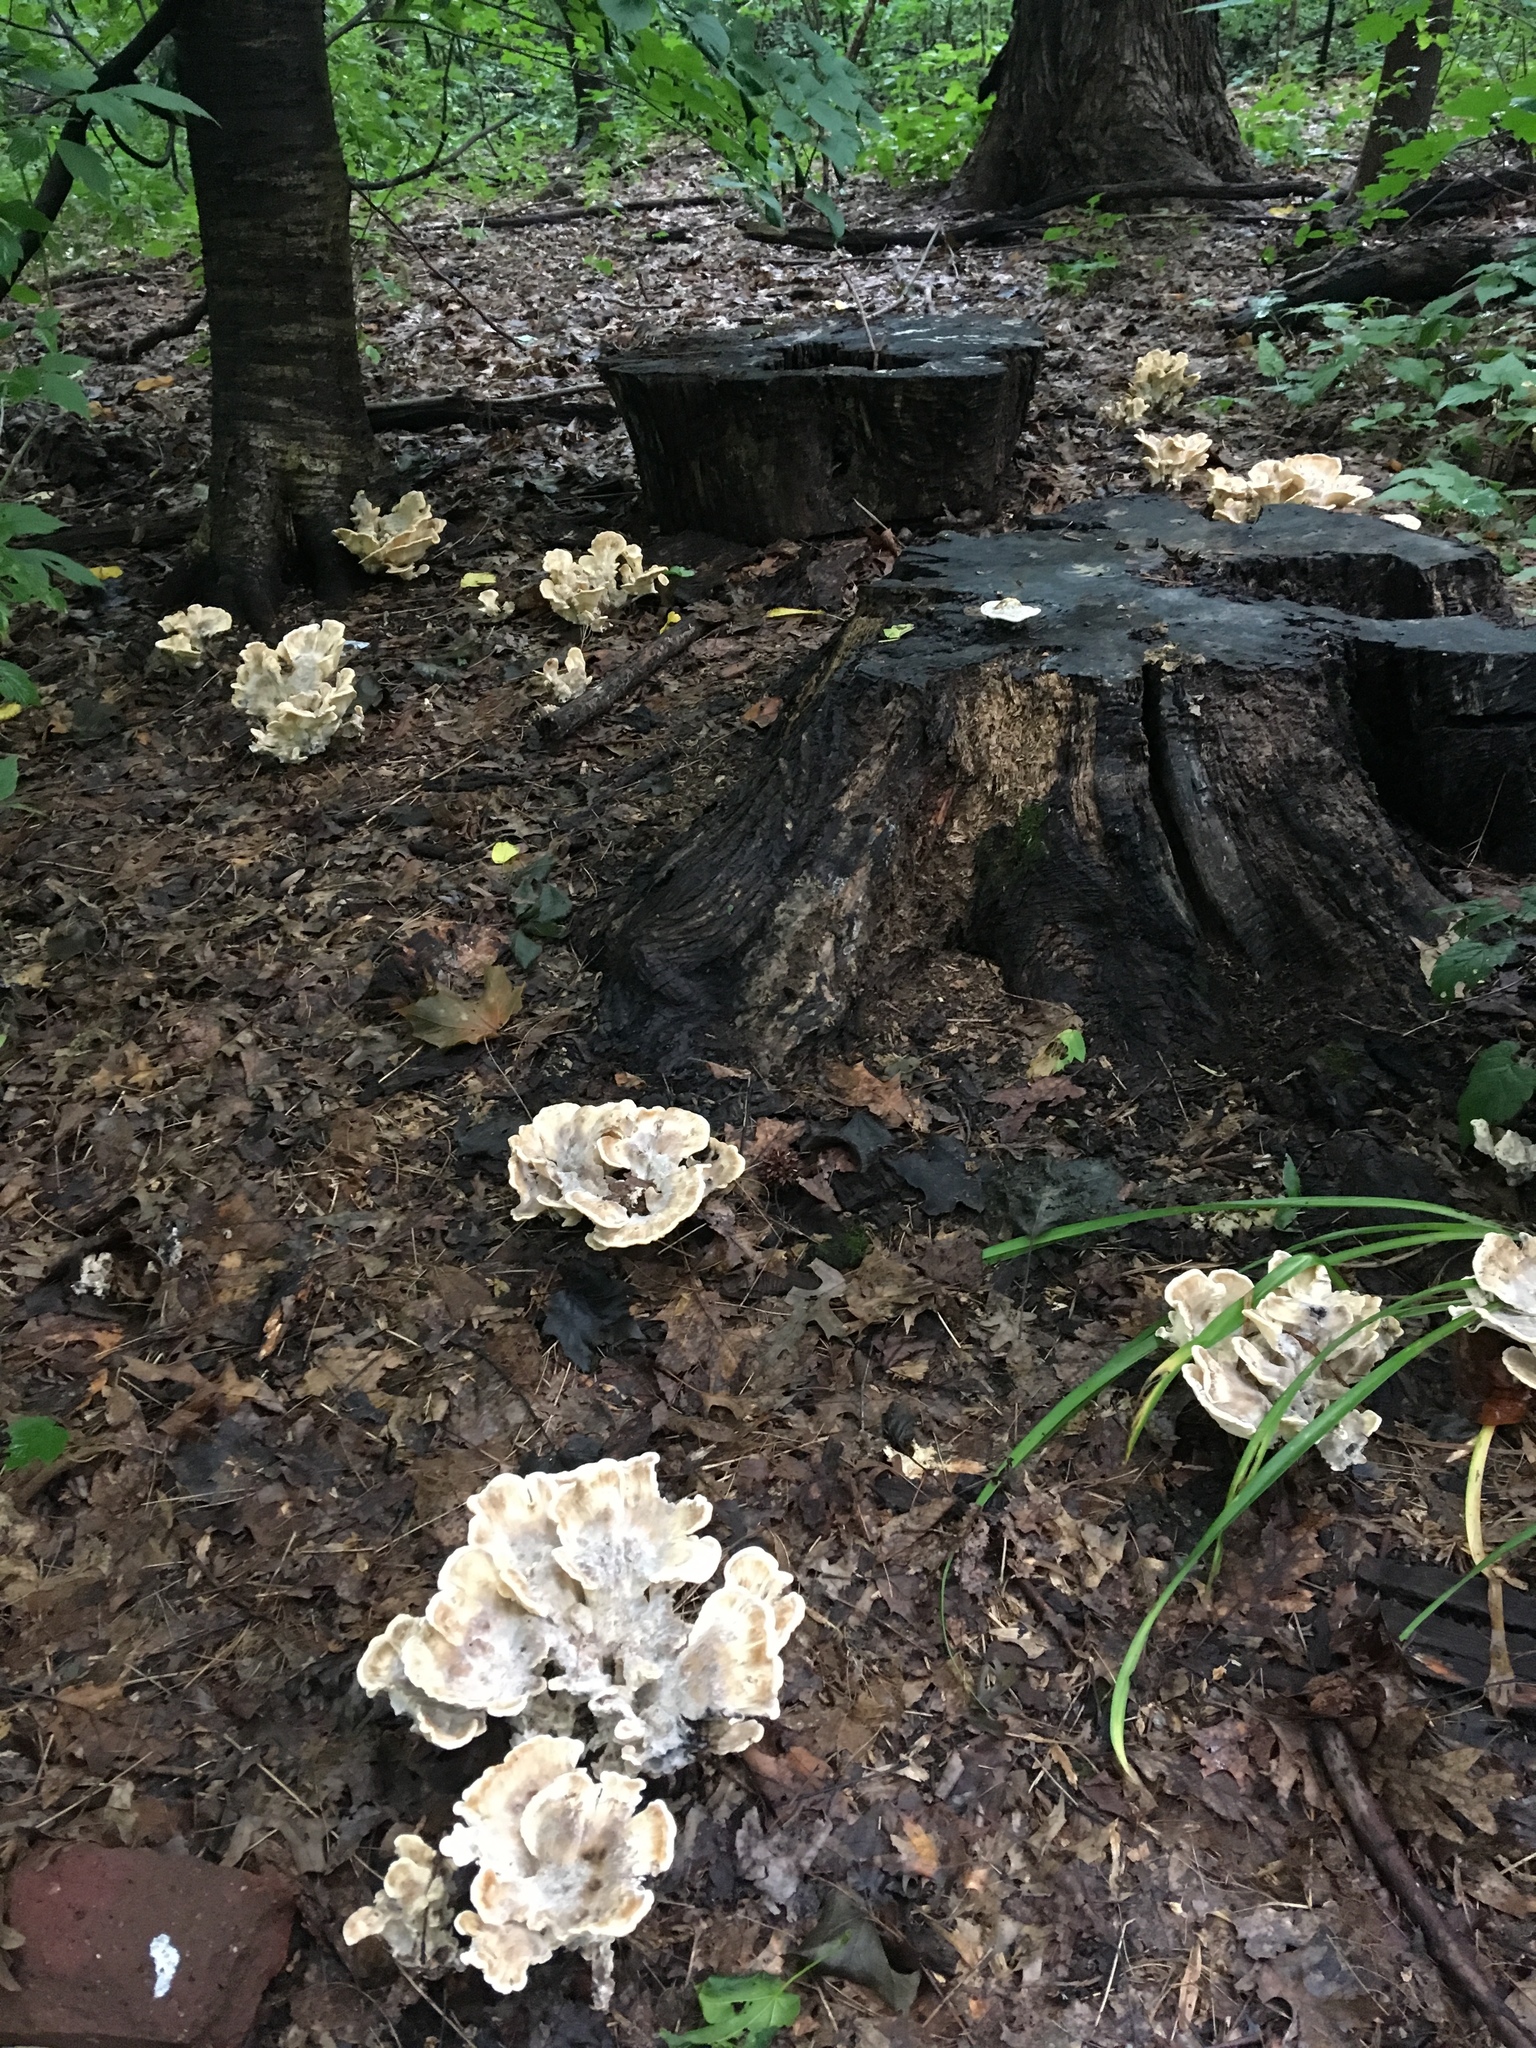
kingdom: Fungi
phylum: Basidiomycota
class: Agaricomycetes
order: Polyporales
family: Meripilaceae
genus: Meripilus
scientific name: Meripilus sumstinei
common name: Black-staining polypore
